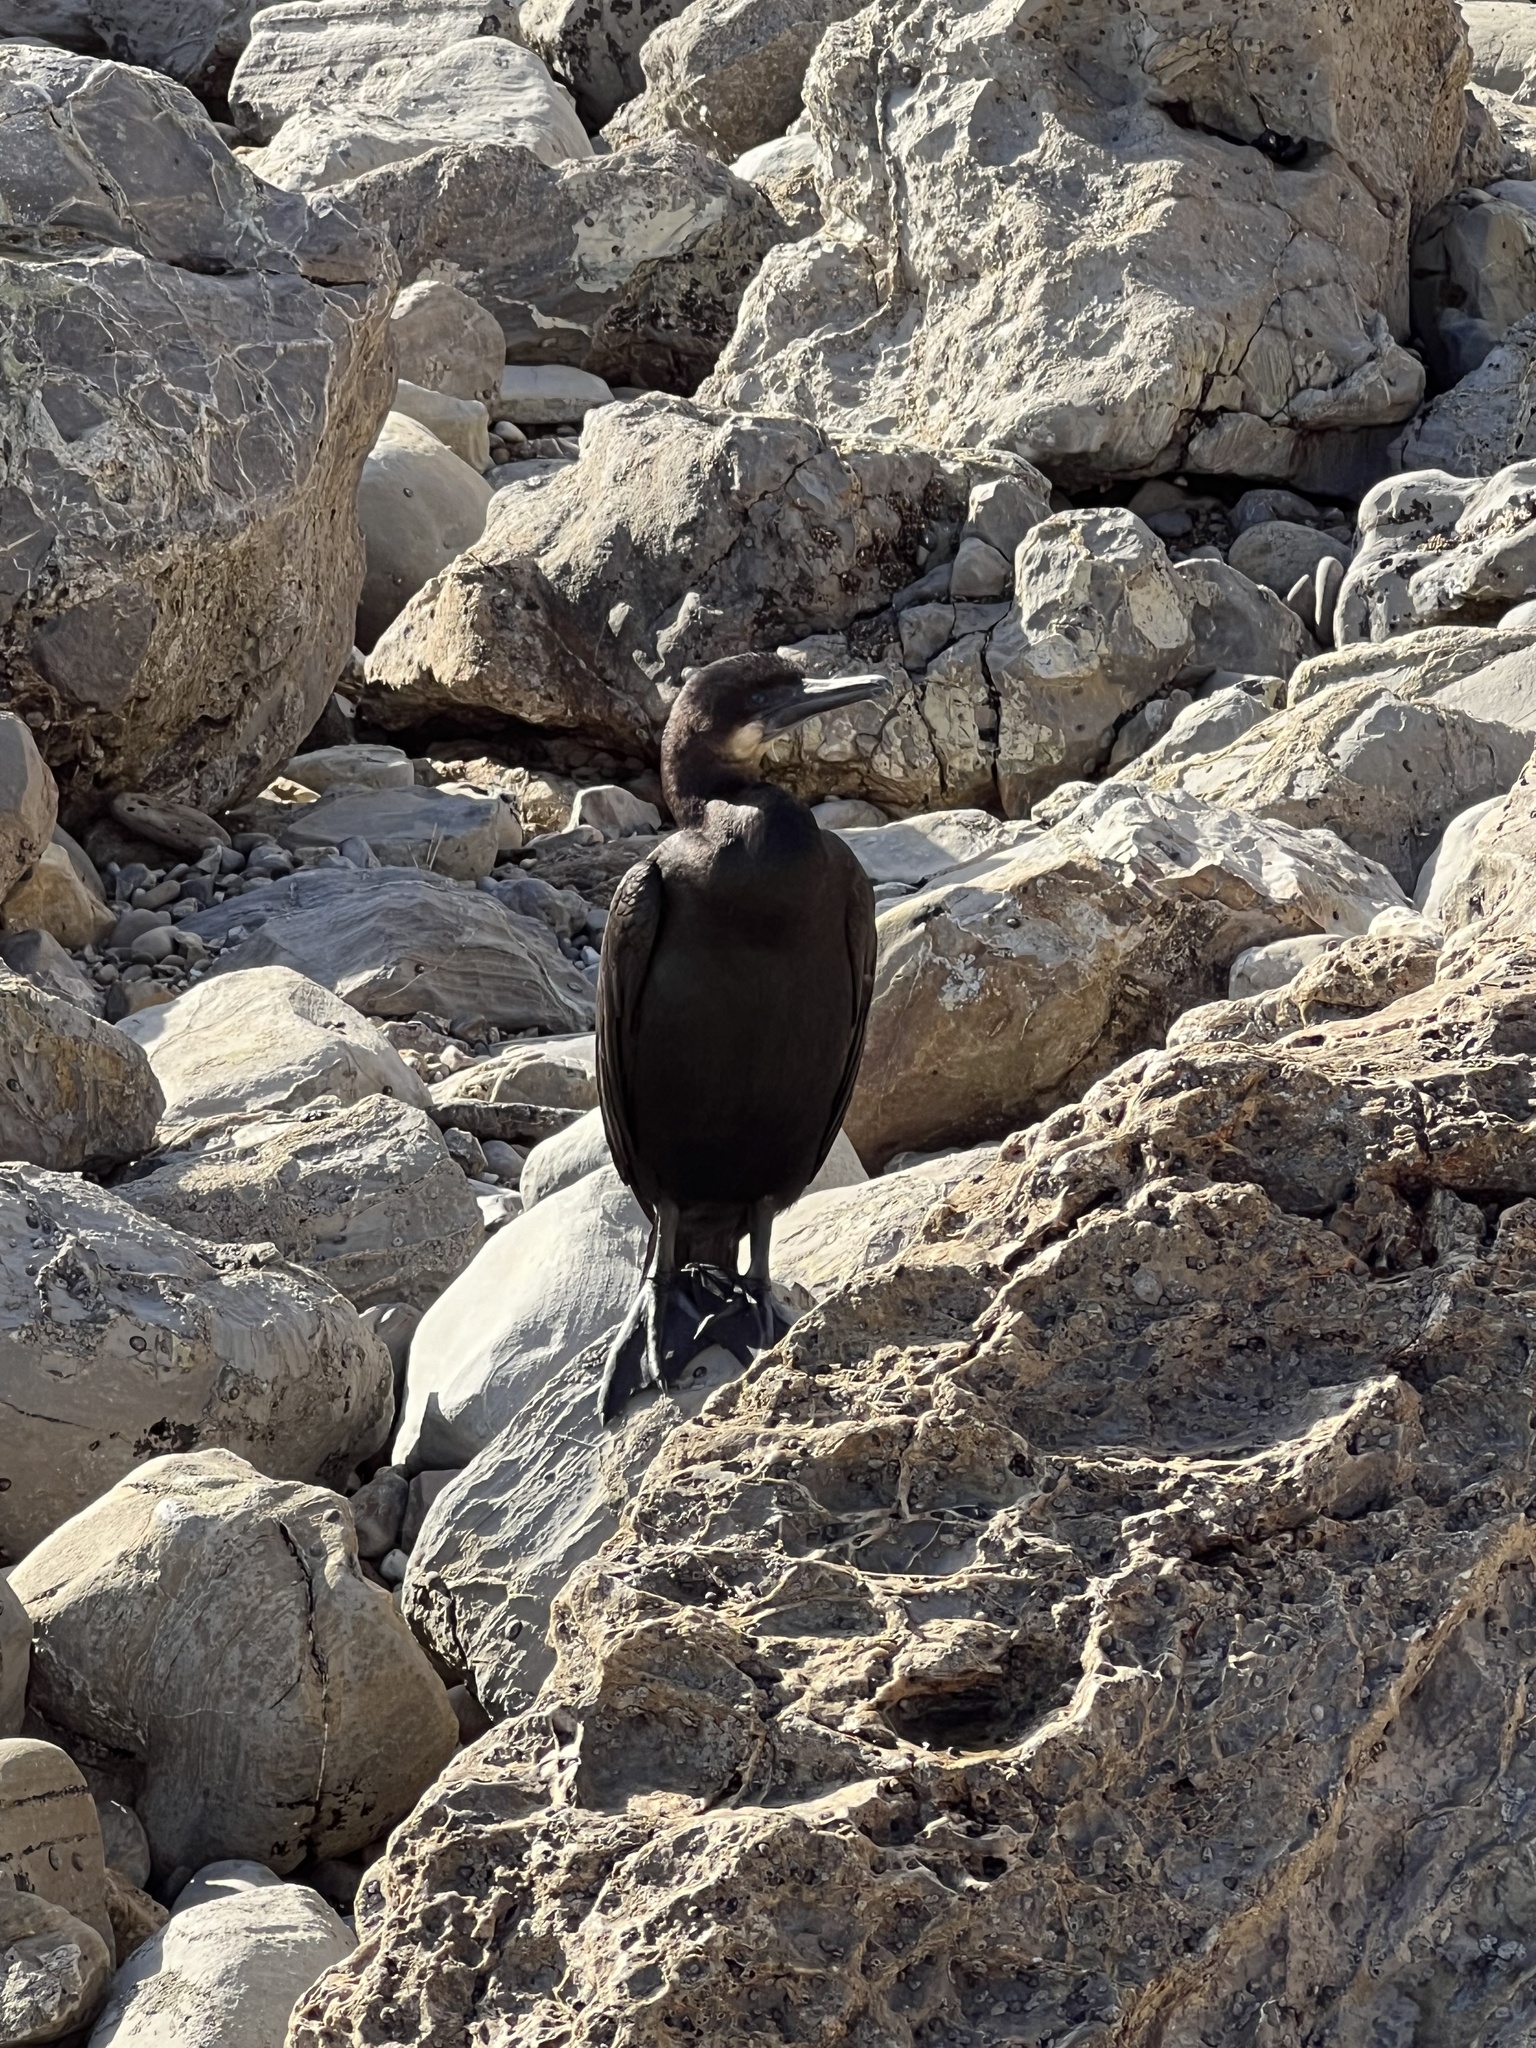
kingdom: Animalia
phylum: Chordata
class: Aves
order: Suliformes
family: Phalacrocoracidae
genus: Urile
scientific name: Urile penicillatus
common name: Brandt's cormorant
